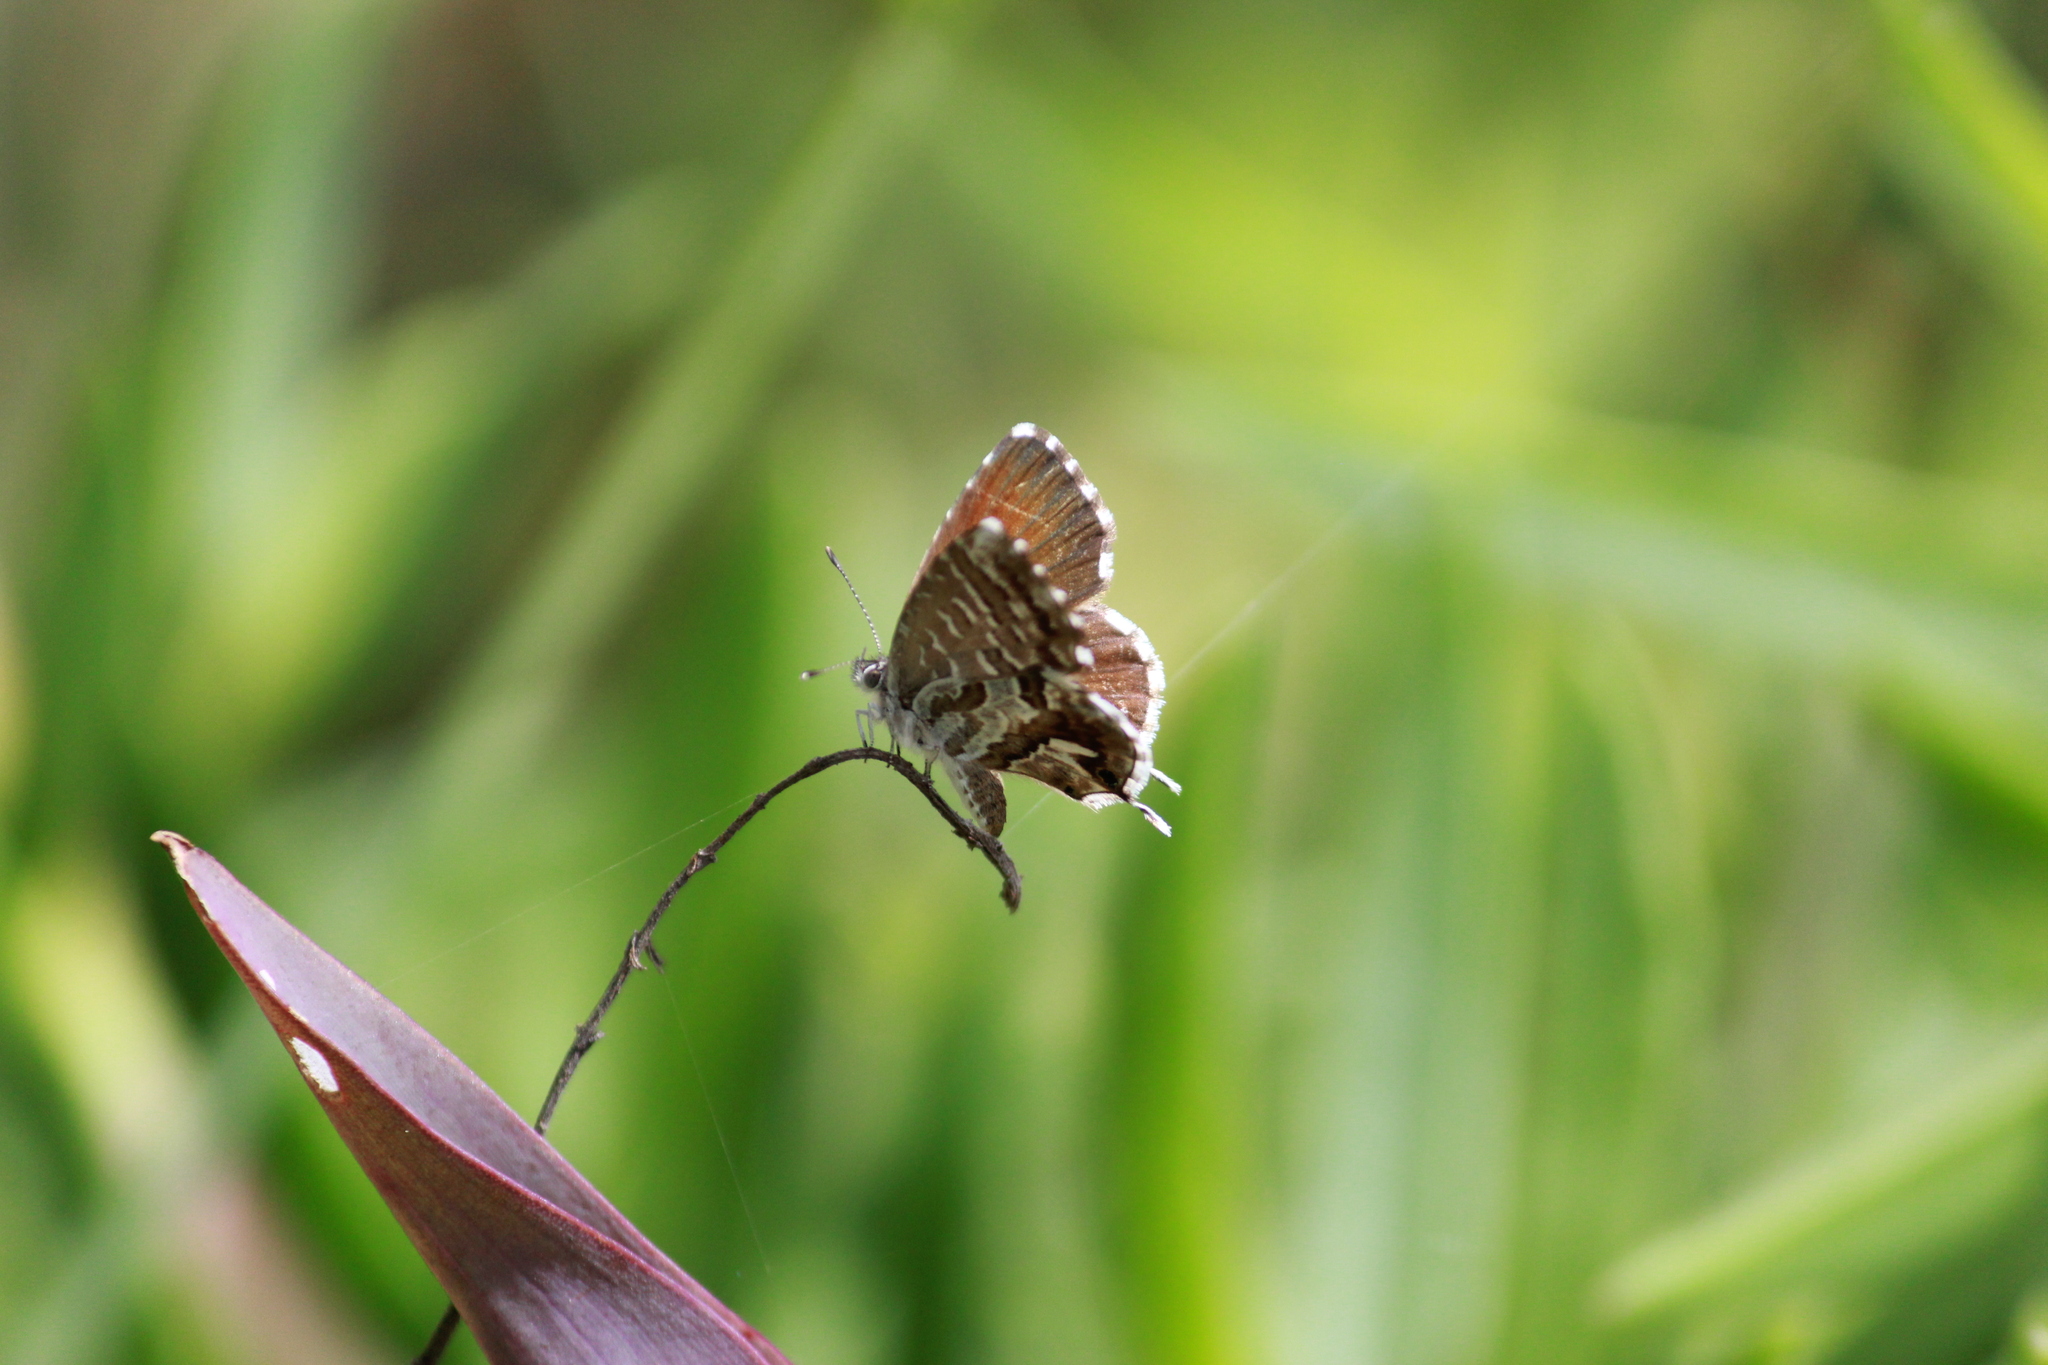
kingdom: Animalia
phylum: Arthropoda
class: Insecta
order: Lepidoptera
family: Lycaenidae
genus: Cacyreus
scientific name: Cacyreus marshalli
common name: Geranium bronze
